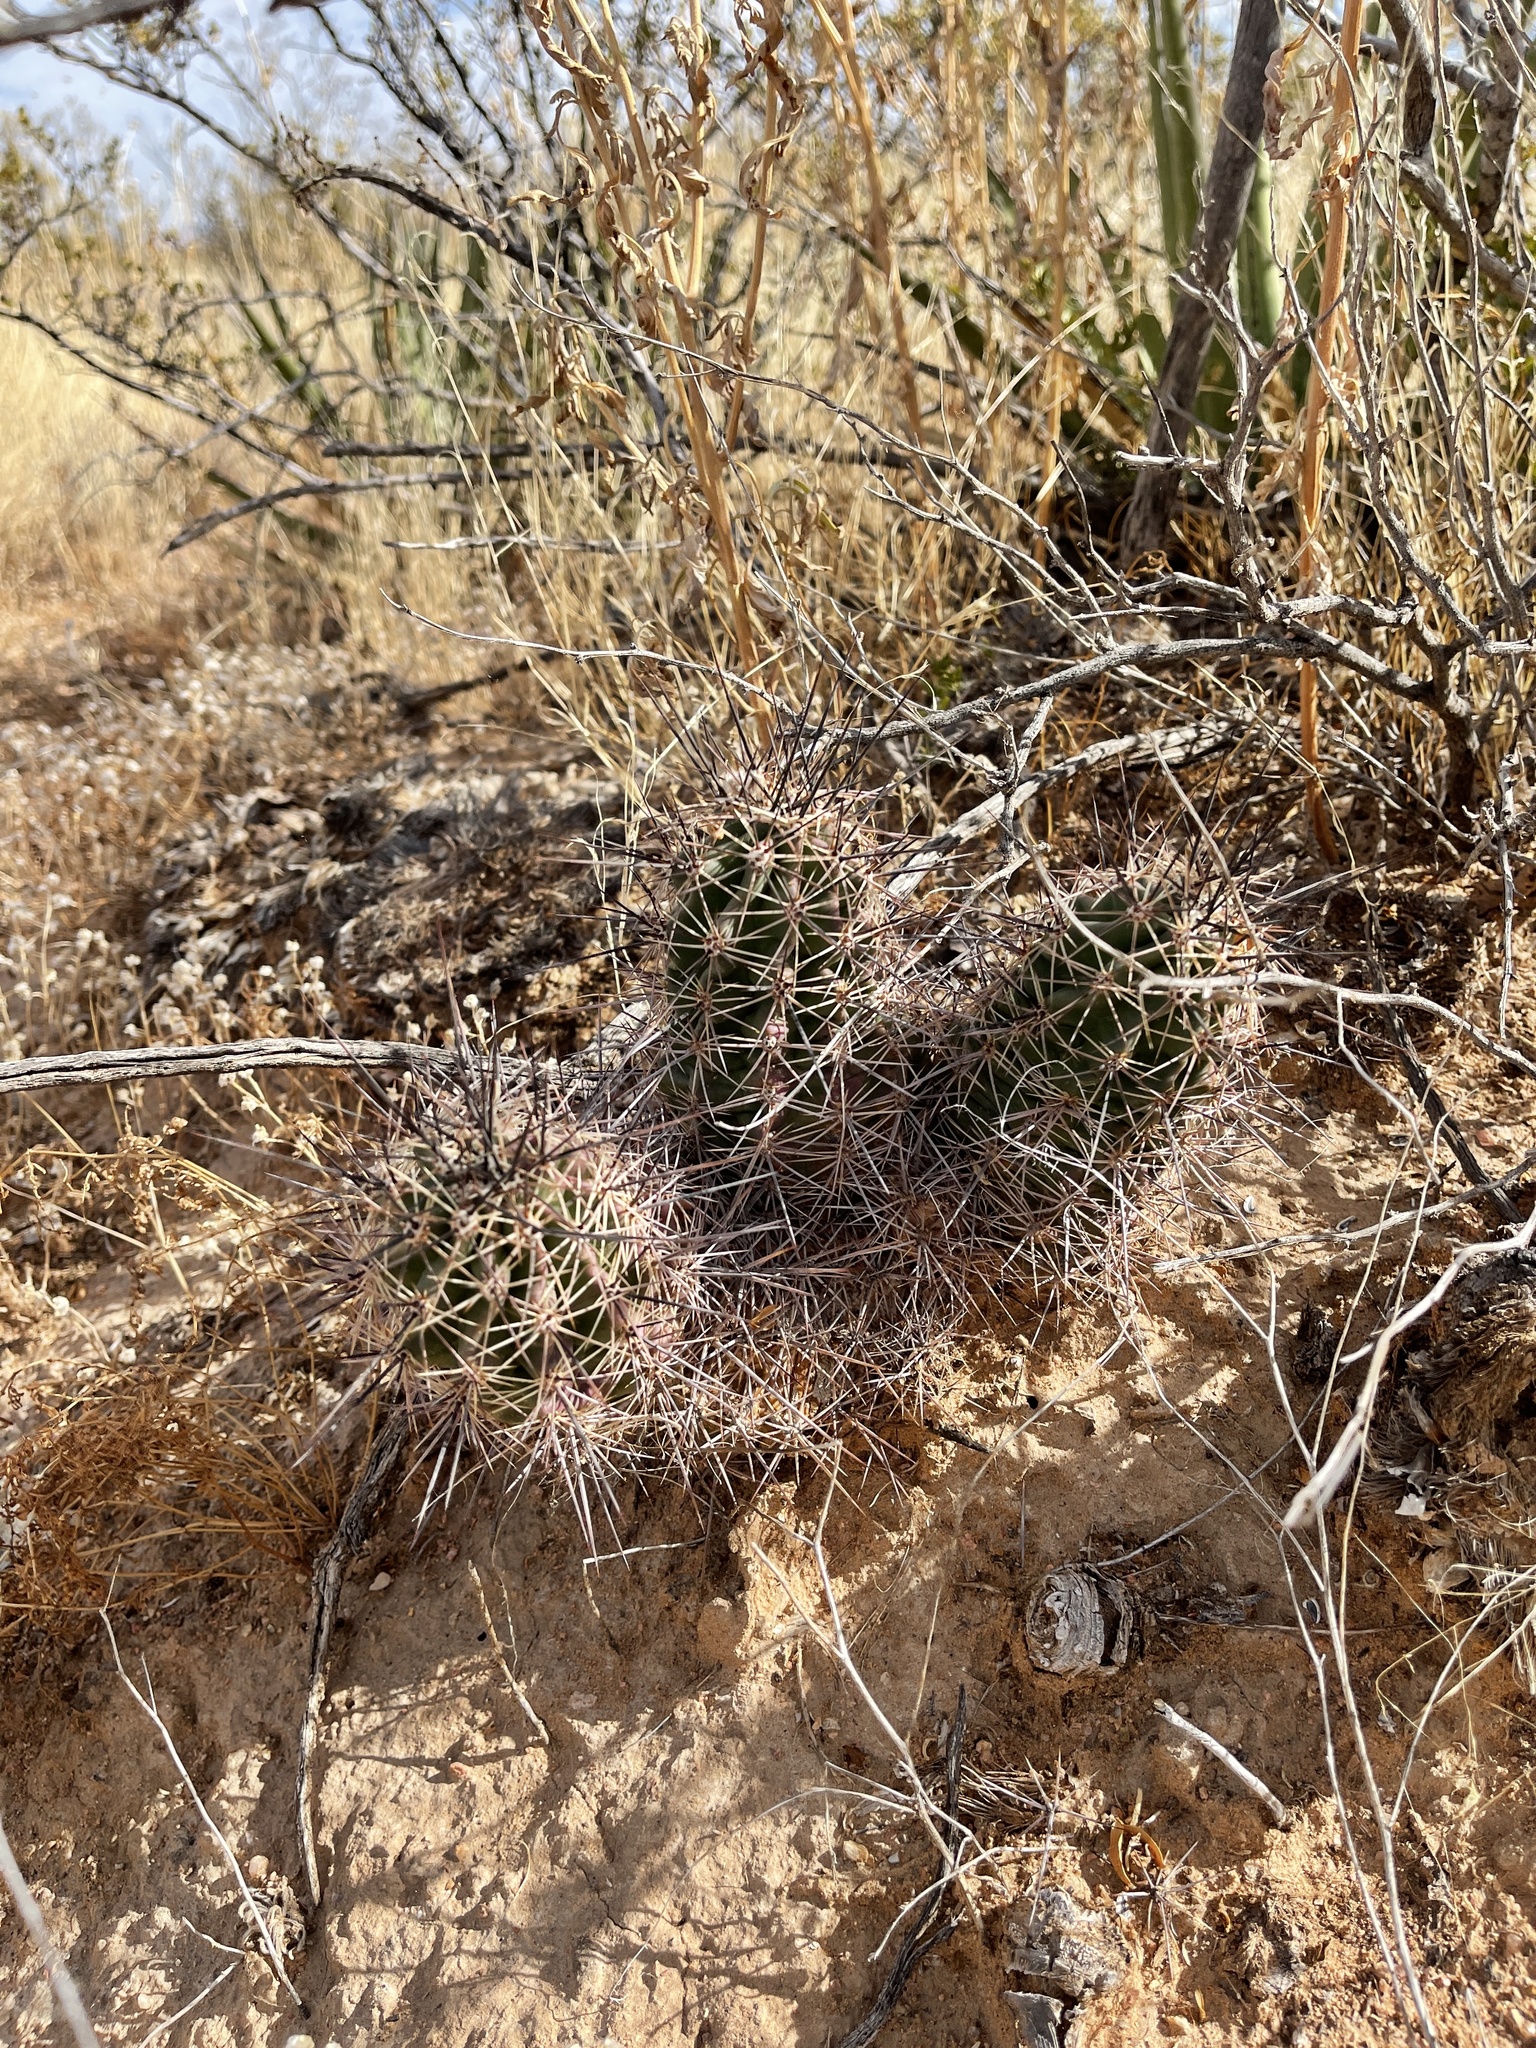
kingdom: Plantae
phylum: Tracheophyta
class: Magnoliopsida
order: Caryophyllales
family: Cactaceae
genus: Echinocereus
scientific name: Echinocereus coccineus
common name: Scarlet hedgehog cactus
